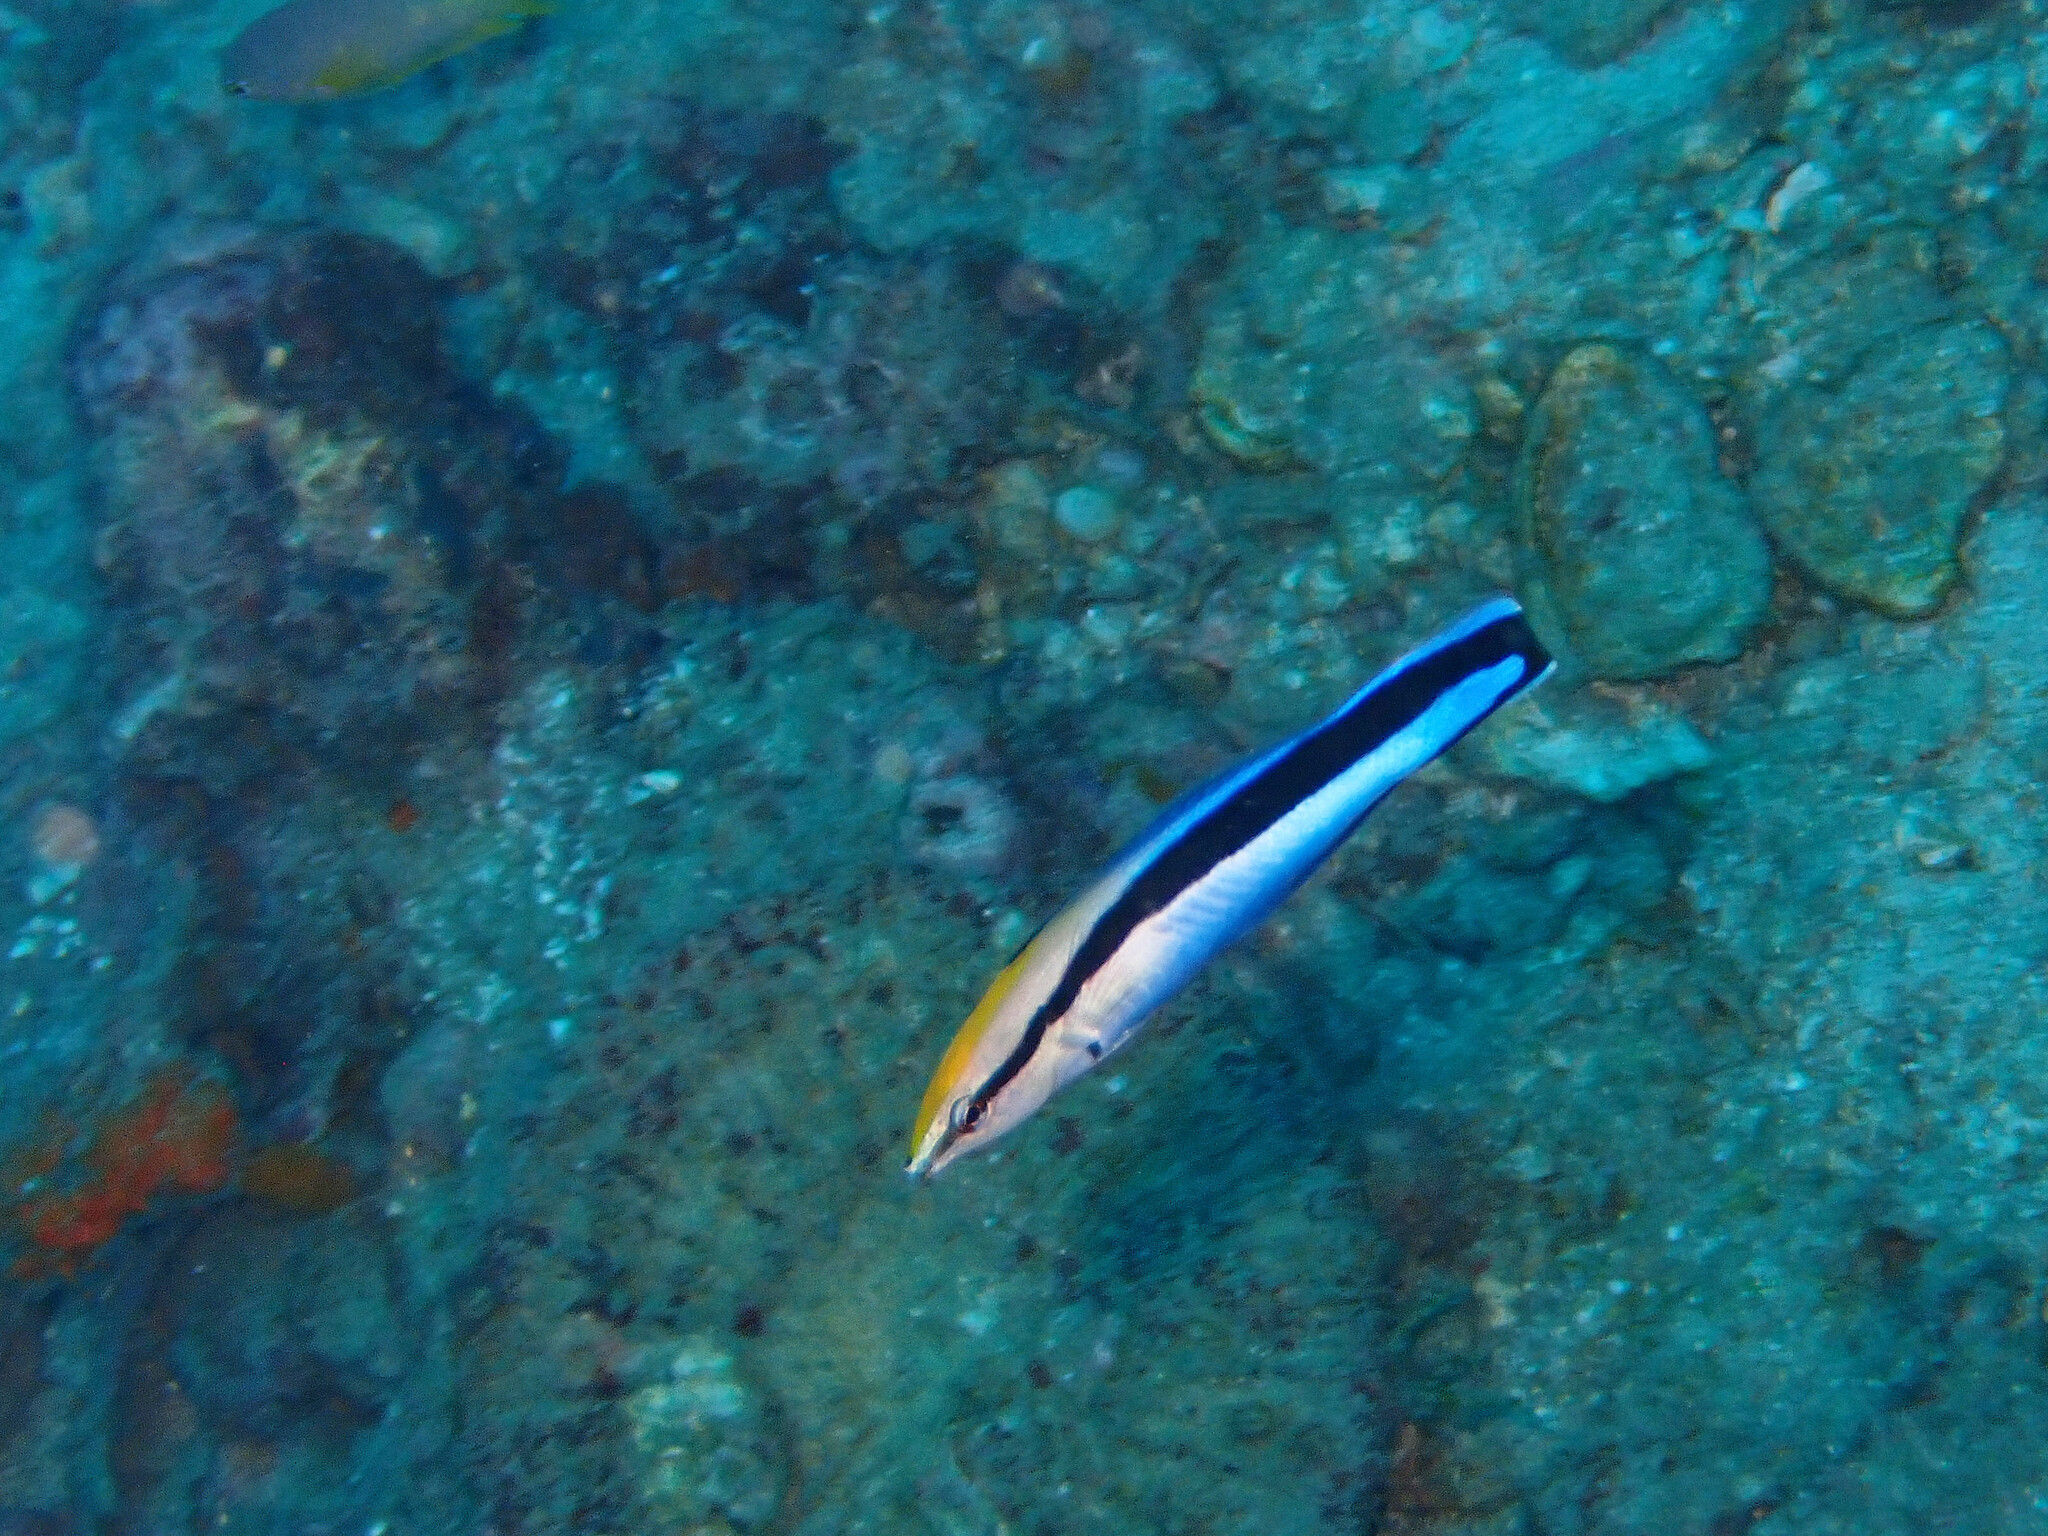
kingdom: Animalia
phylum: Chordata
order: Perciformes
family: Labridae
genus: Labroides
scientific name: Labroides dimidiatus
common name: Blue diesel wrasse
